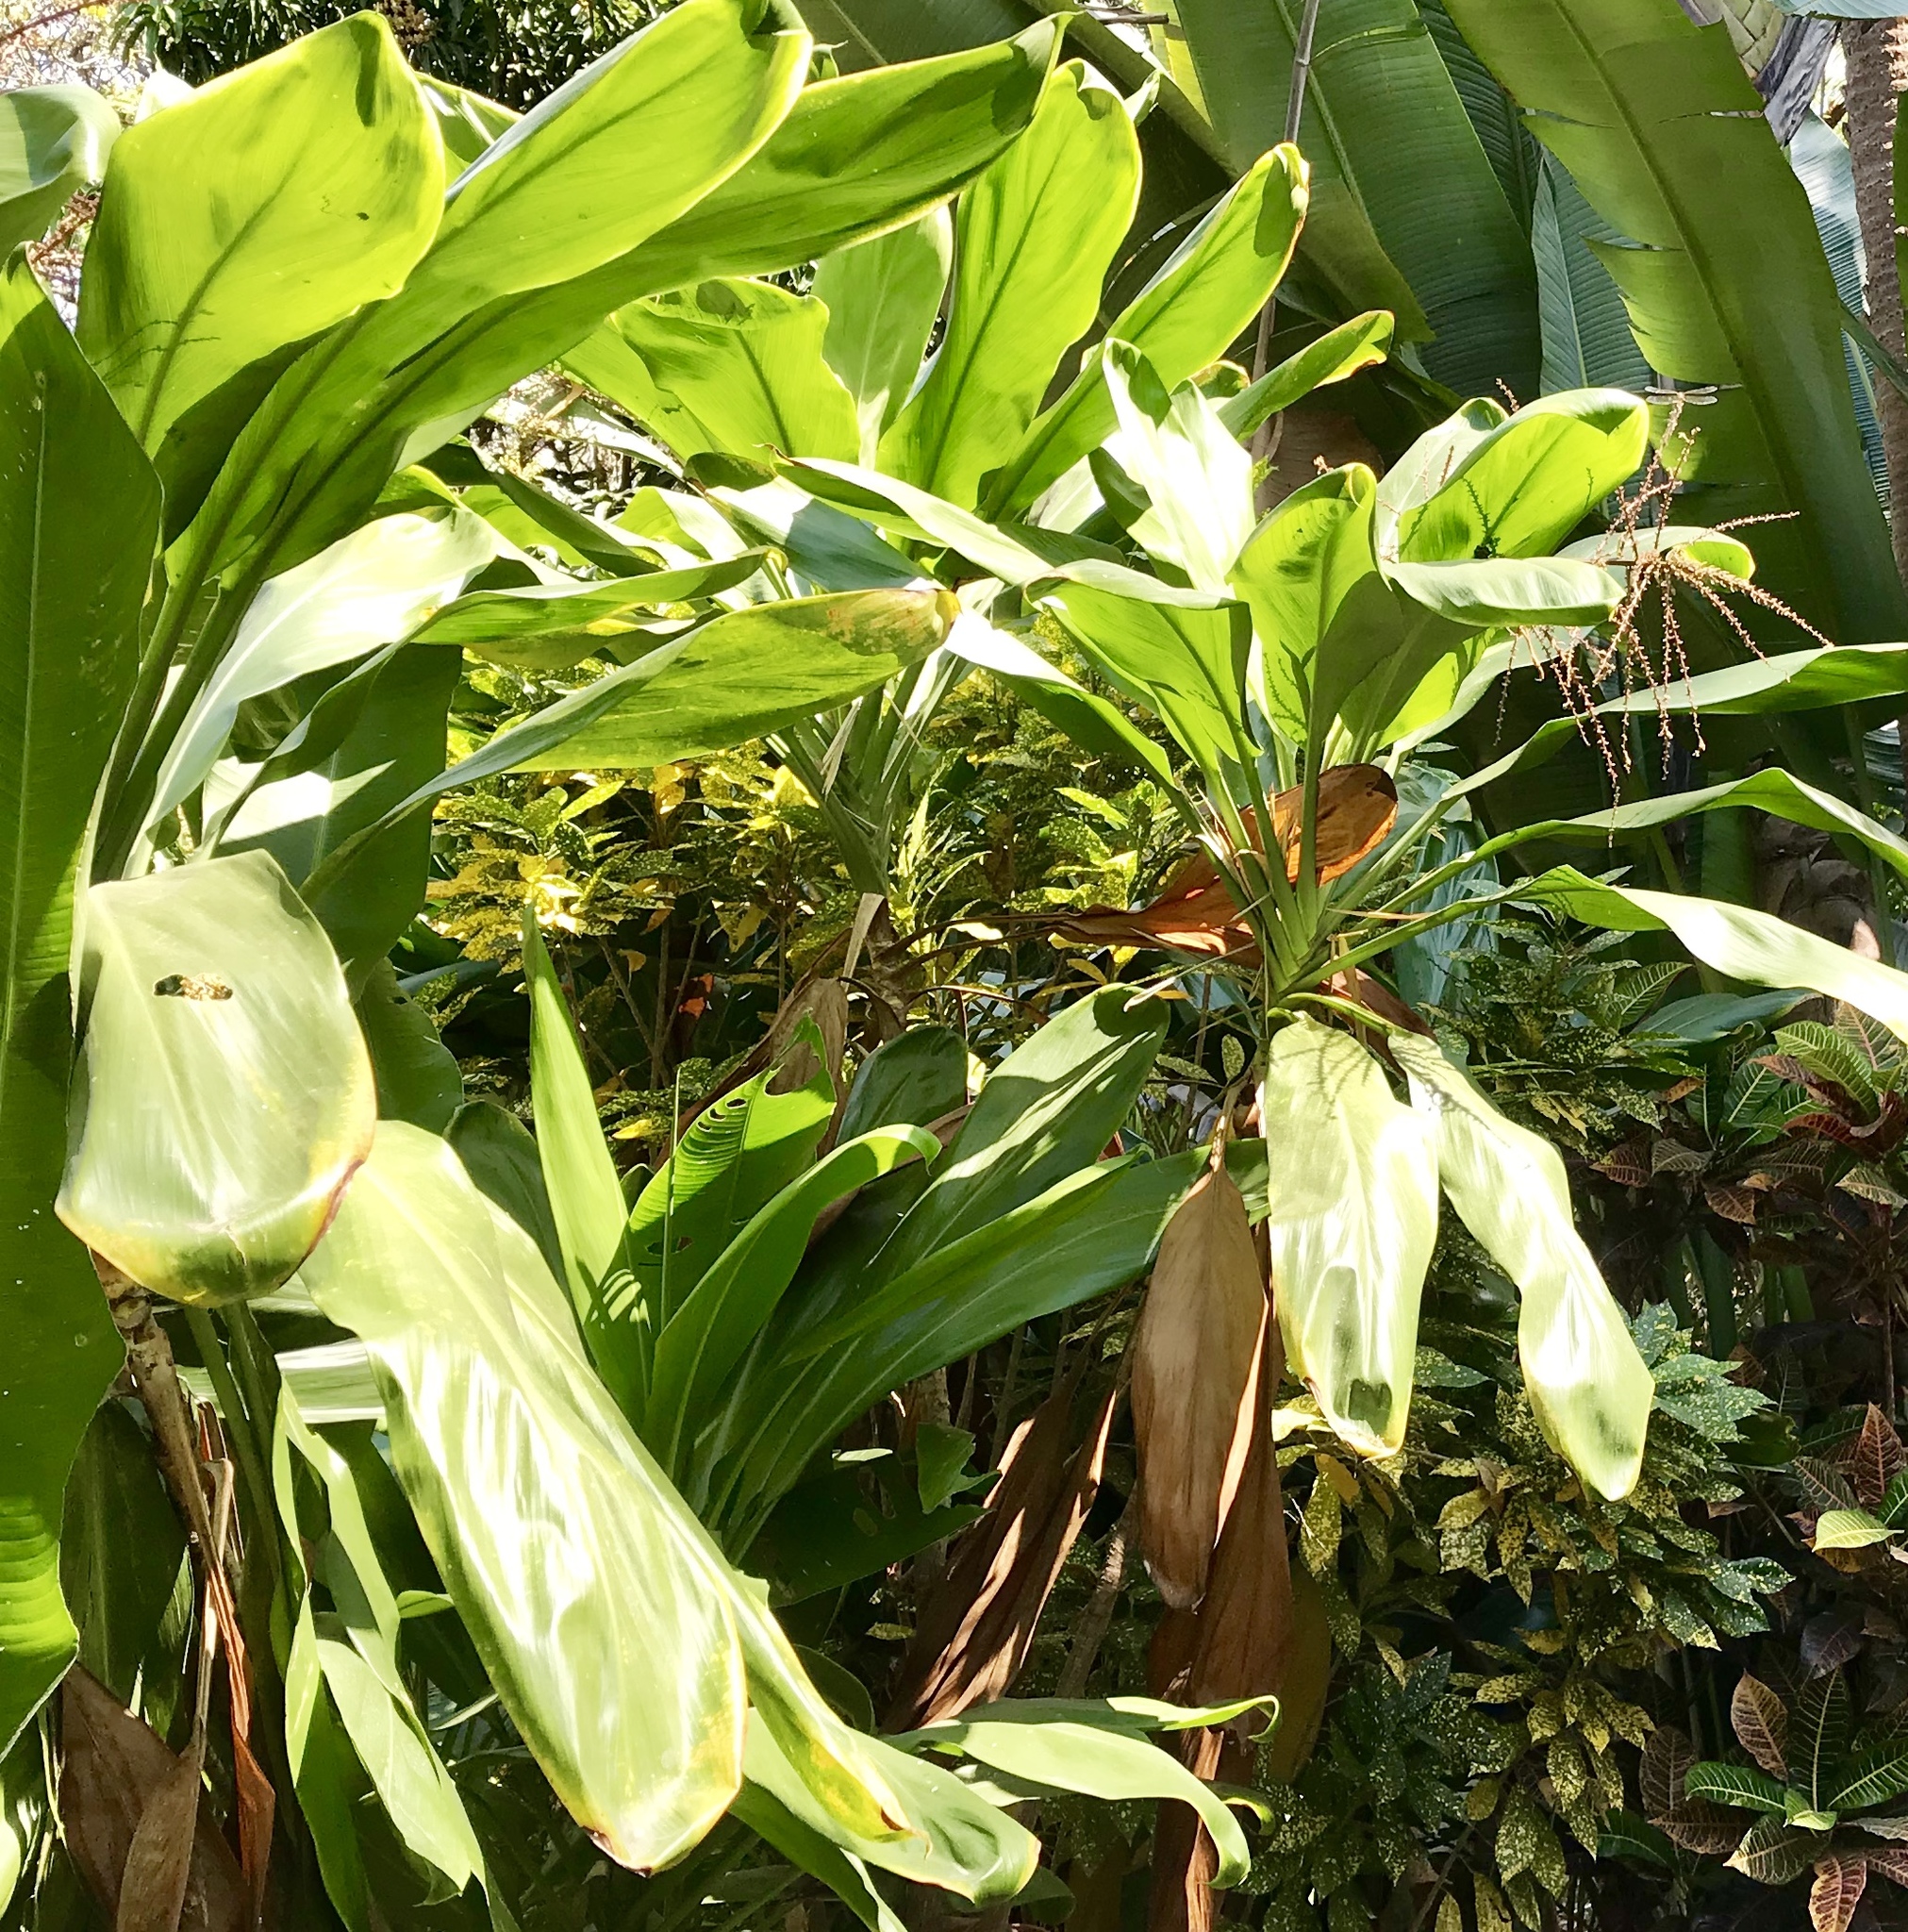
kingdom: Plantae
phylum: Tracheophyta
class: Liliopsida
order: Asparagales
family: Asparagaceae
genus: Cordyline
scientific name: Cordyline fruticosa
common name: Good-luck-plant
